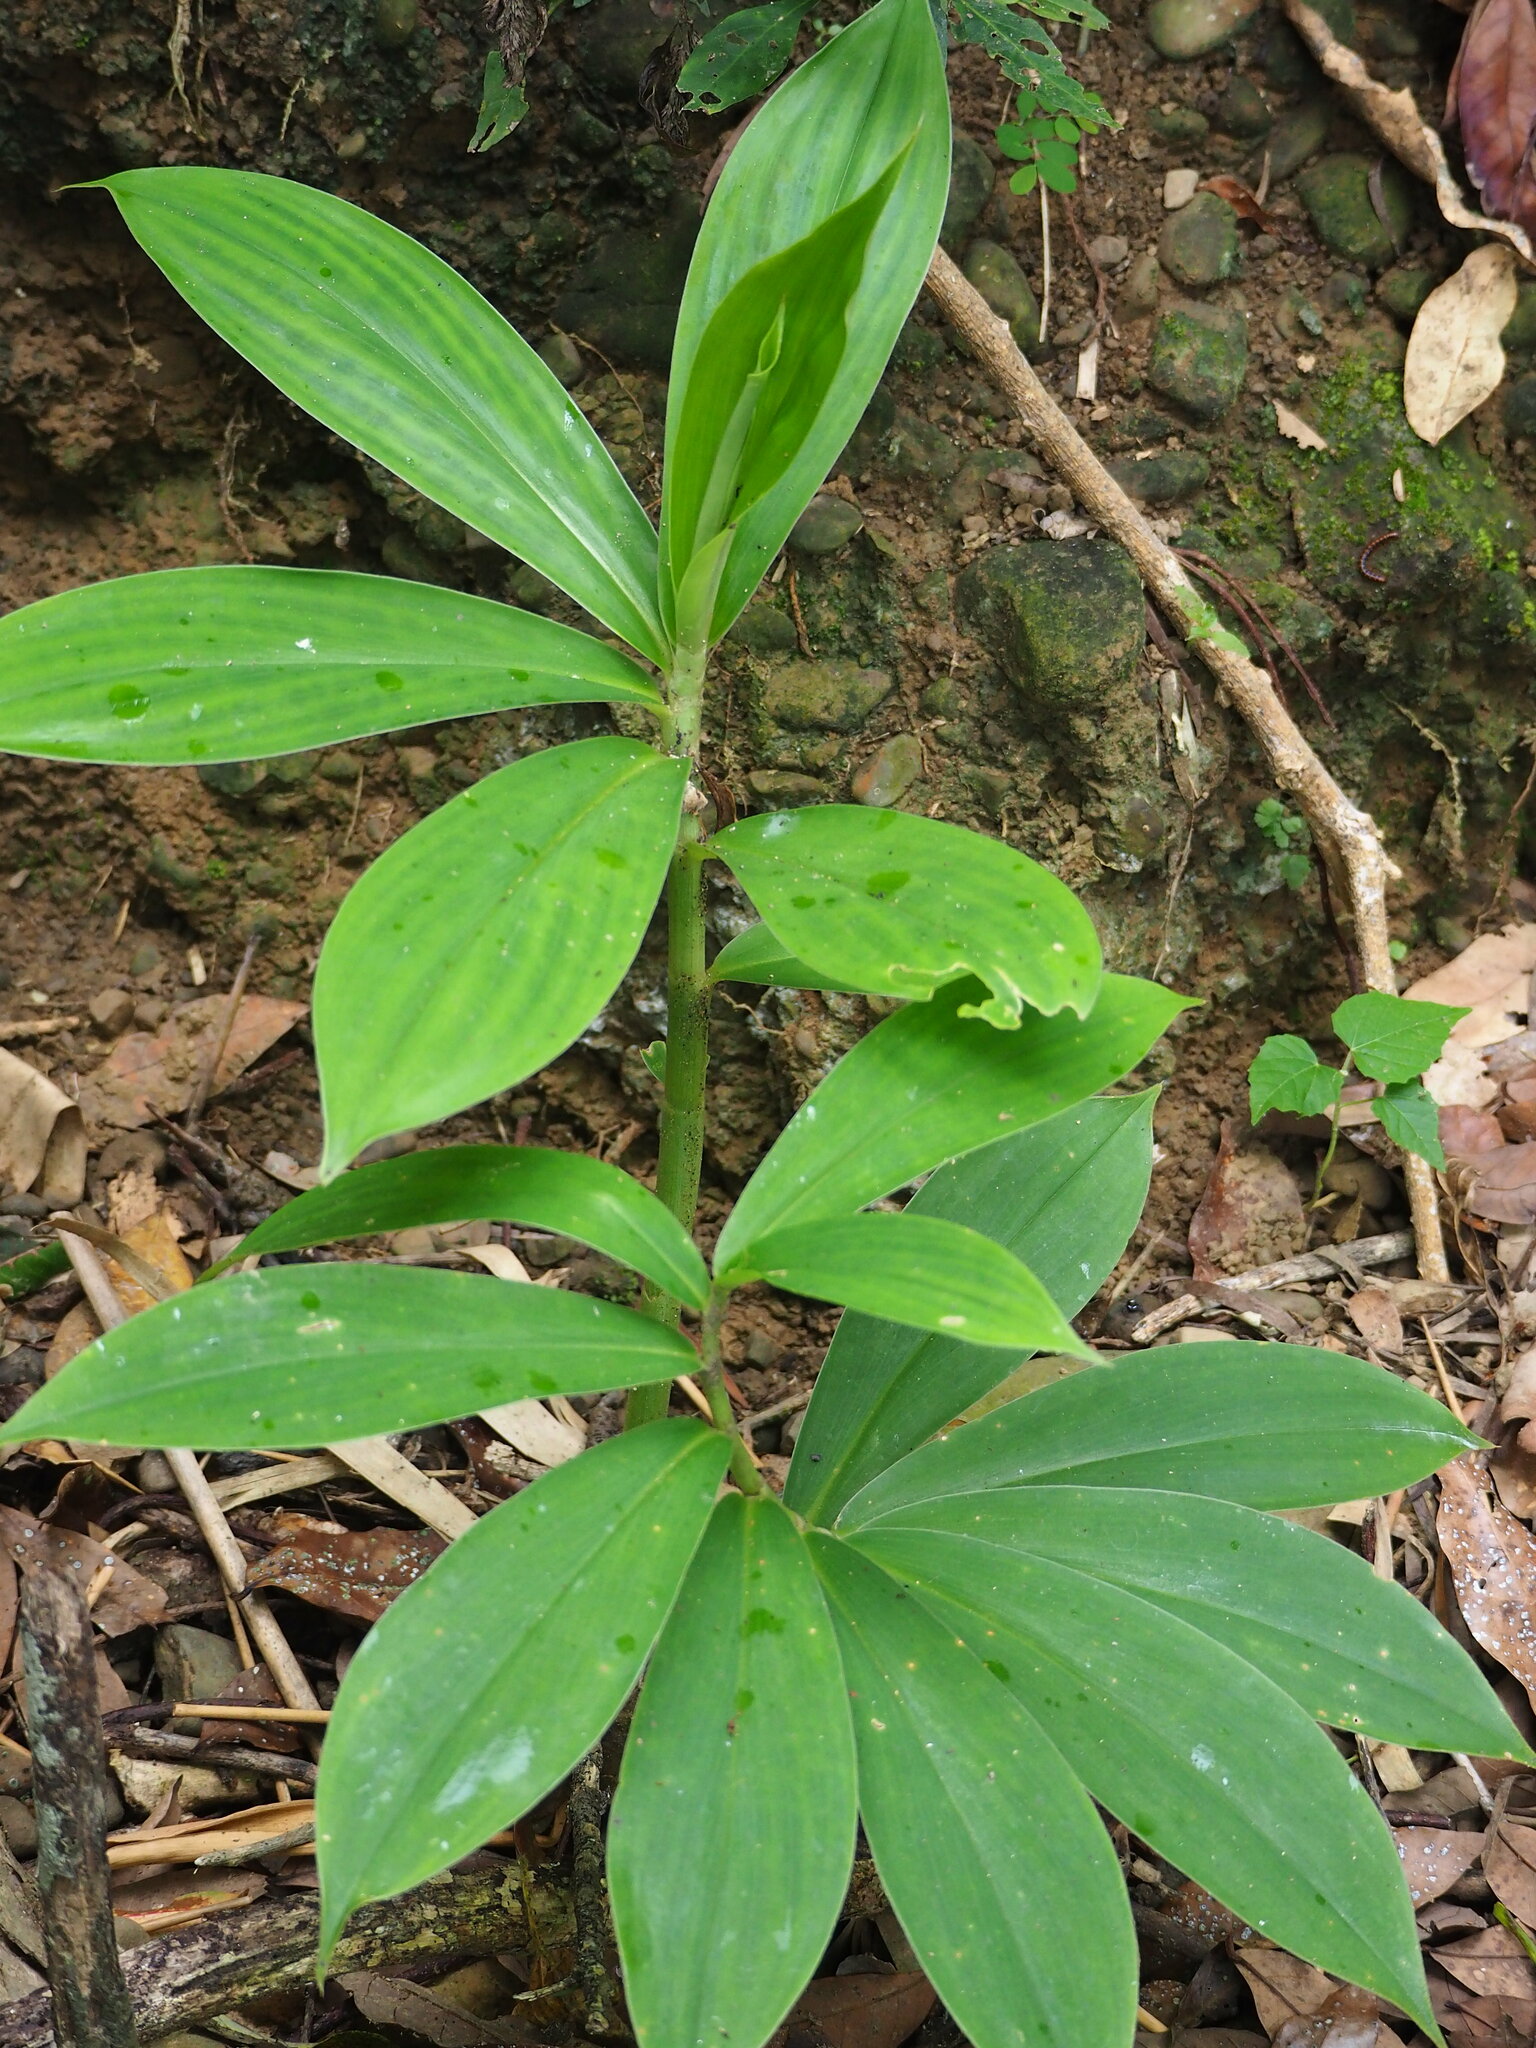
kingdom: Plantae
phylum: Tracheophyta
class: Liliopsida
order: Zingiberales
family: Costaceae
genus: Hellenia
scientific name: Hellenia speciosa
